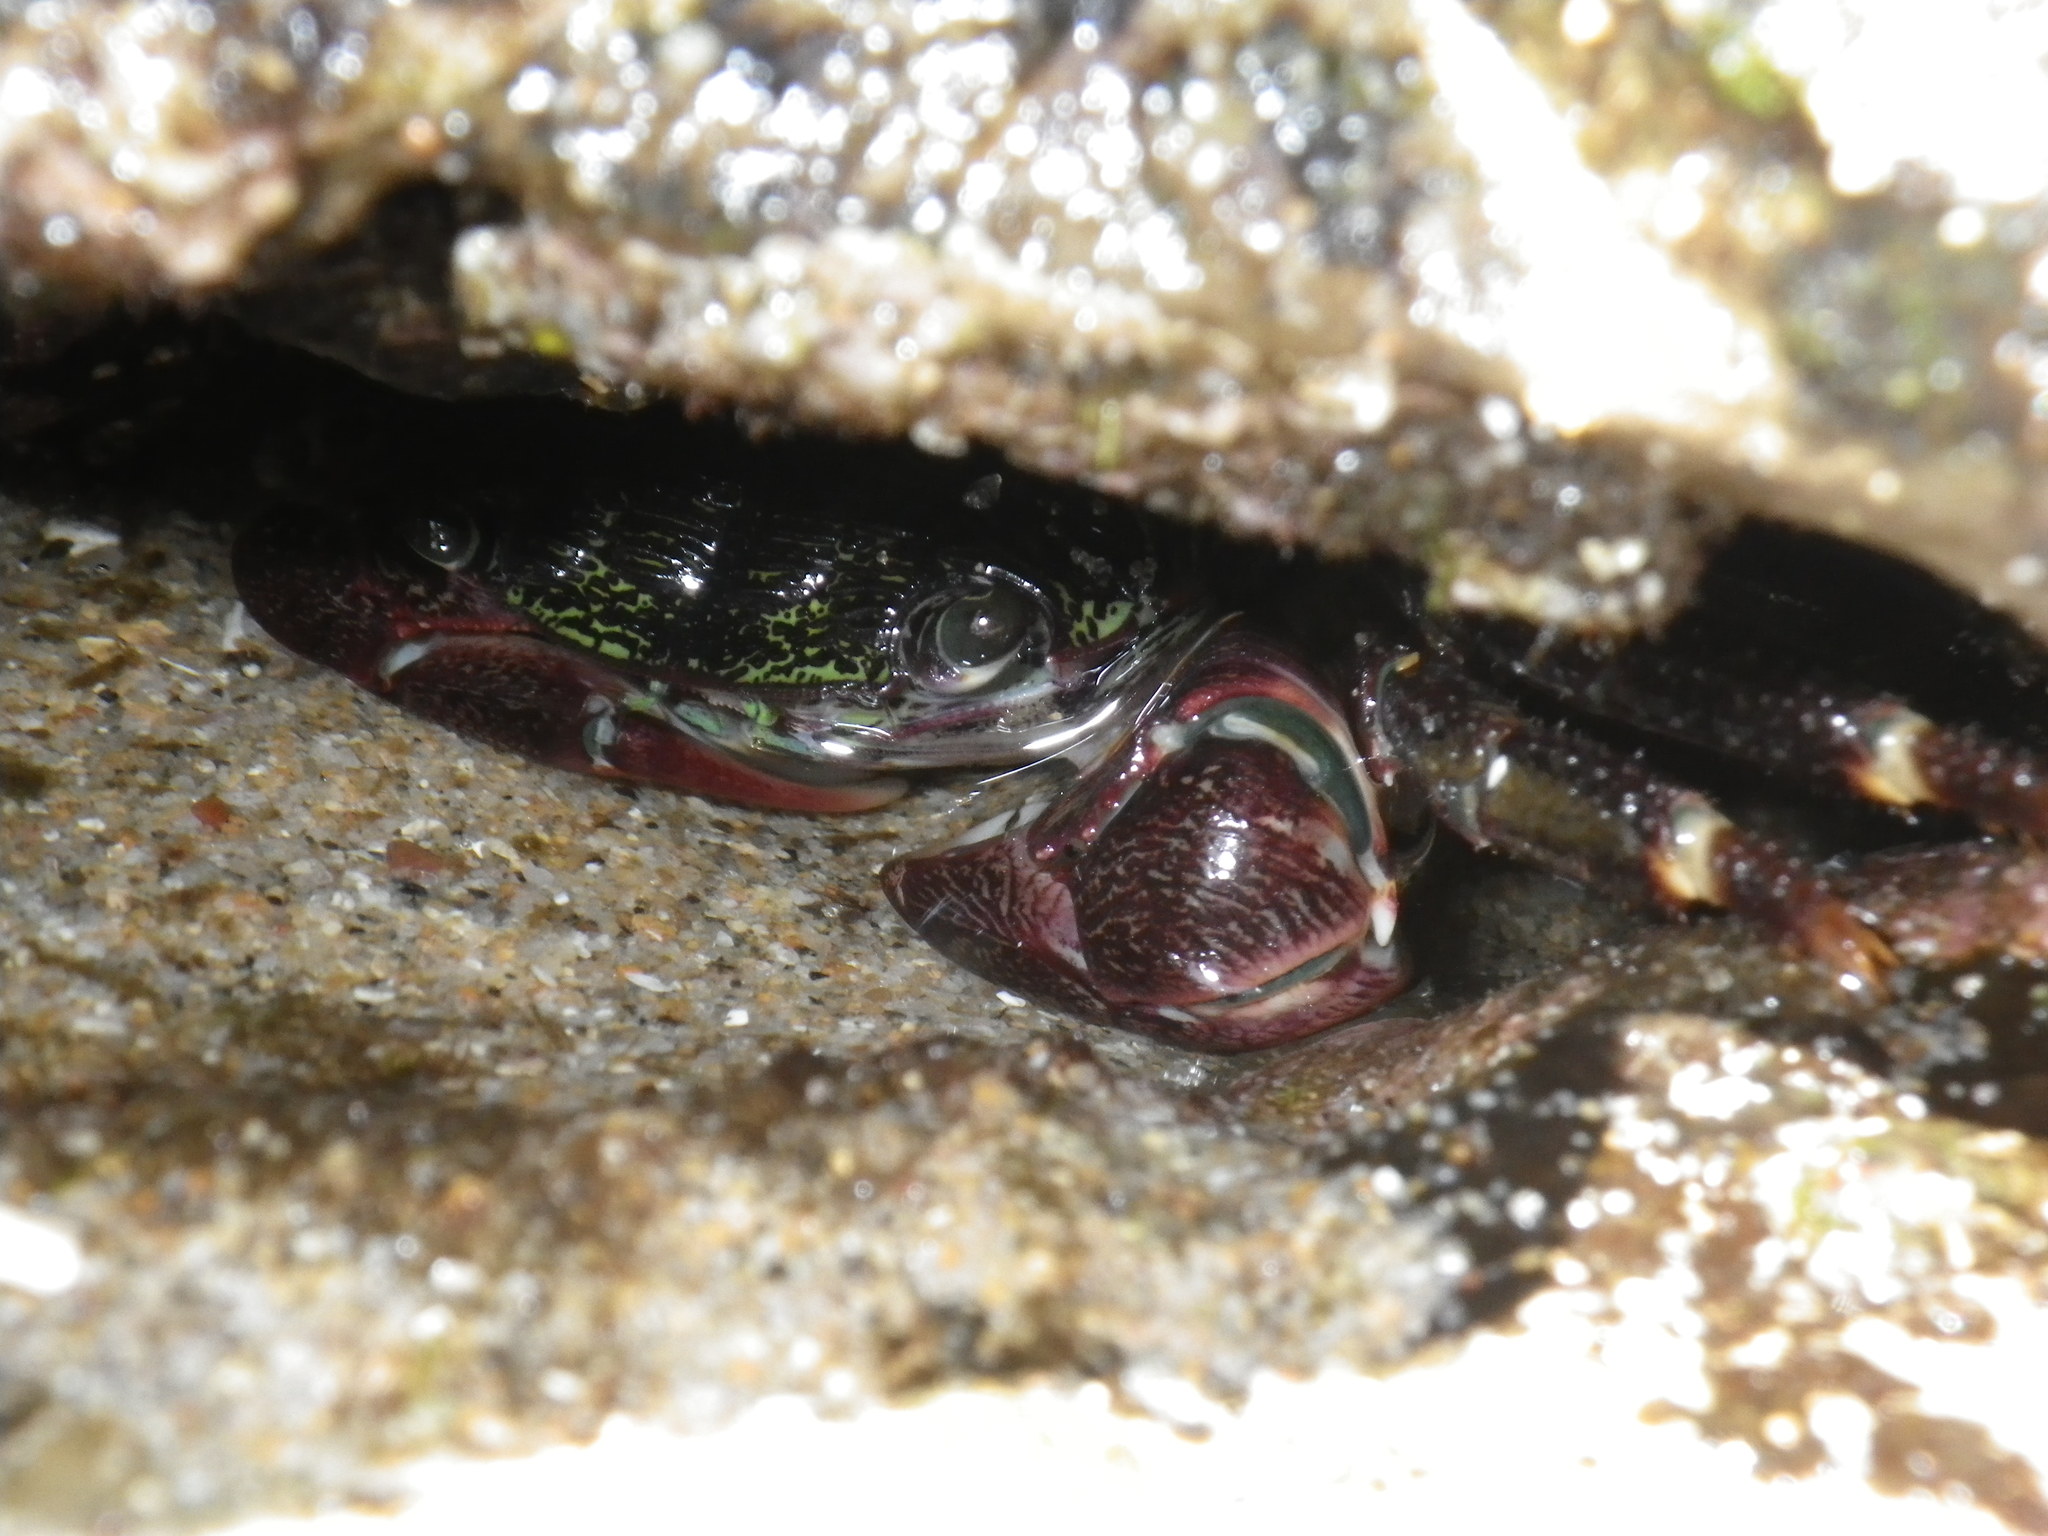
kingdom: Animalia
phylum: Arthropoda
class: Malacostraca
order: Decapoda
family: Grapsidae
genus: Pachygrapsus
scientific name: Pachygrapsus crassipes
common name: Striped shore crab
